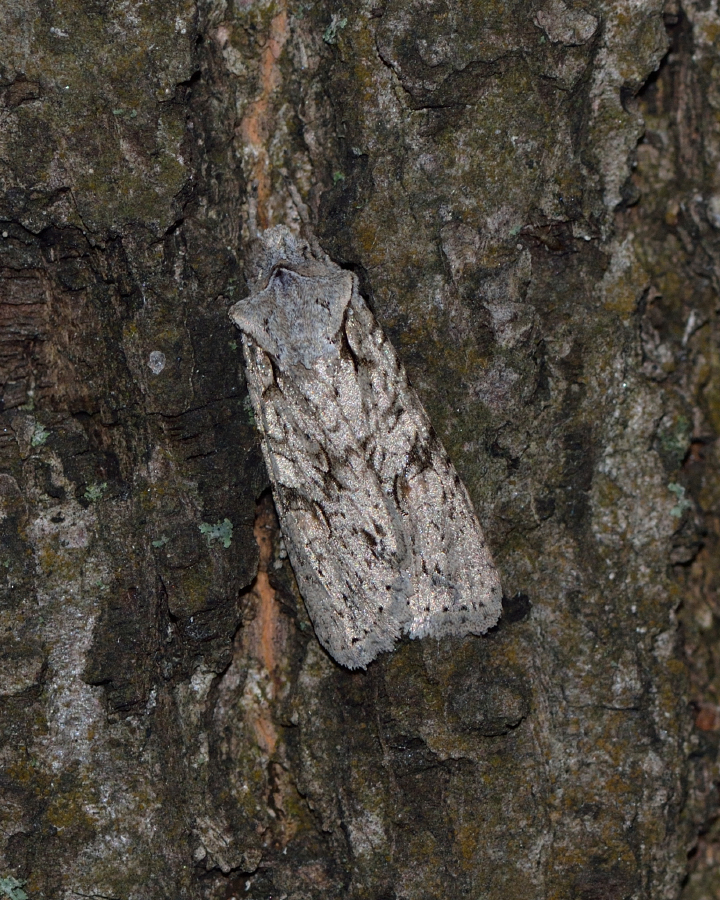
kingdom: Animalia
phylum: Arthropoda
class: Insecta
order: Lepidoptera
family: Noctuidae
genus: Lithophane
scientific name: Lithophane ornitopus
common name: Grey shoulder-knot
